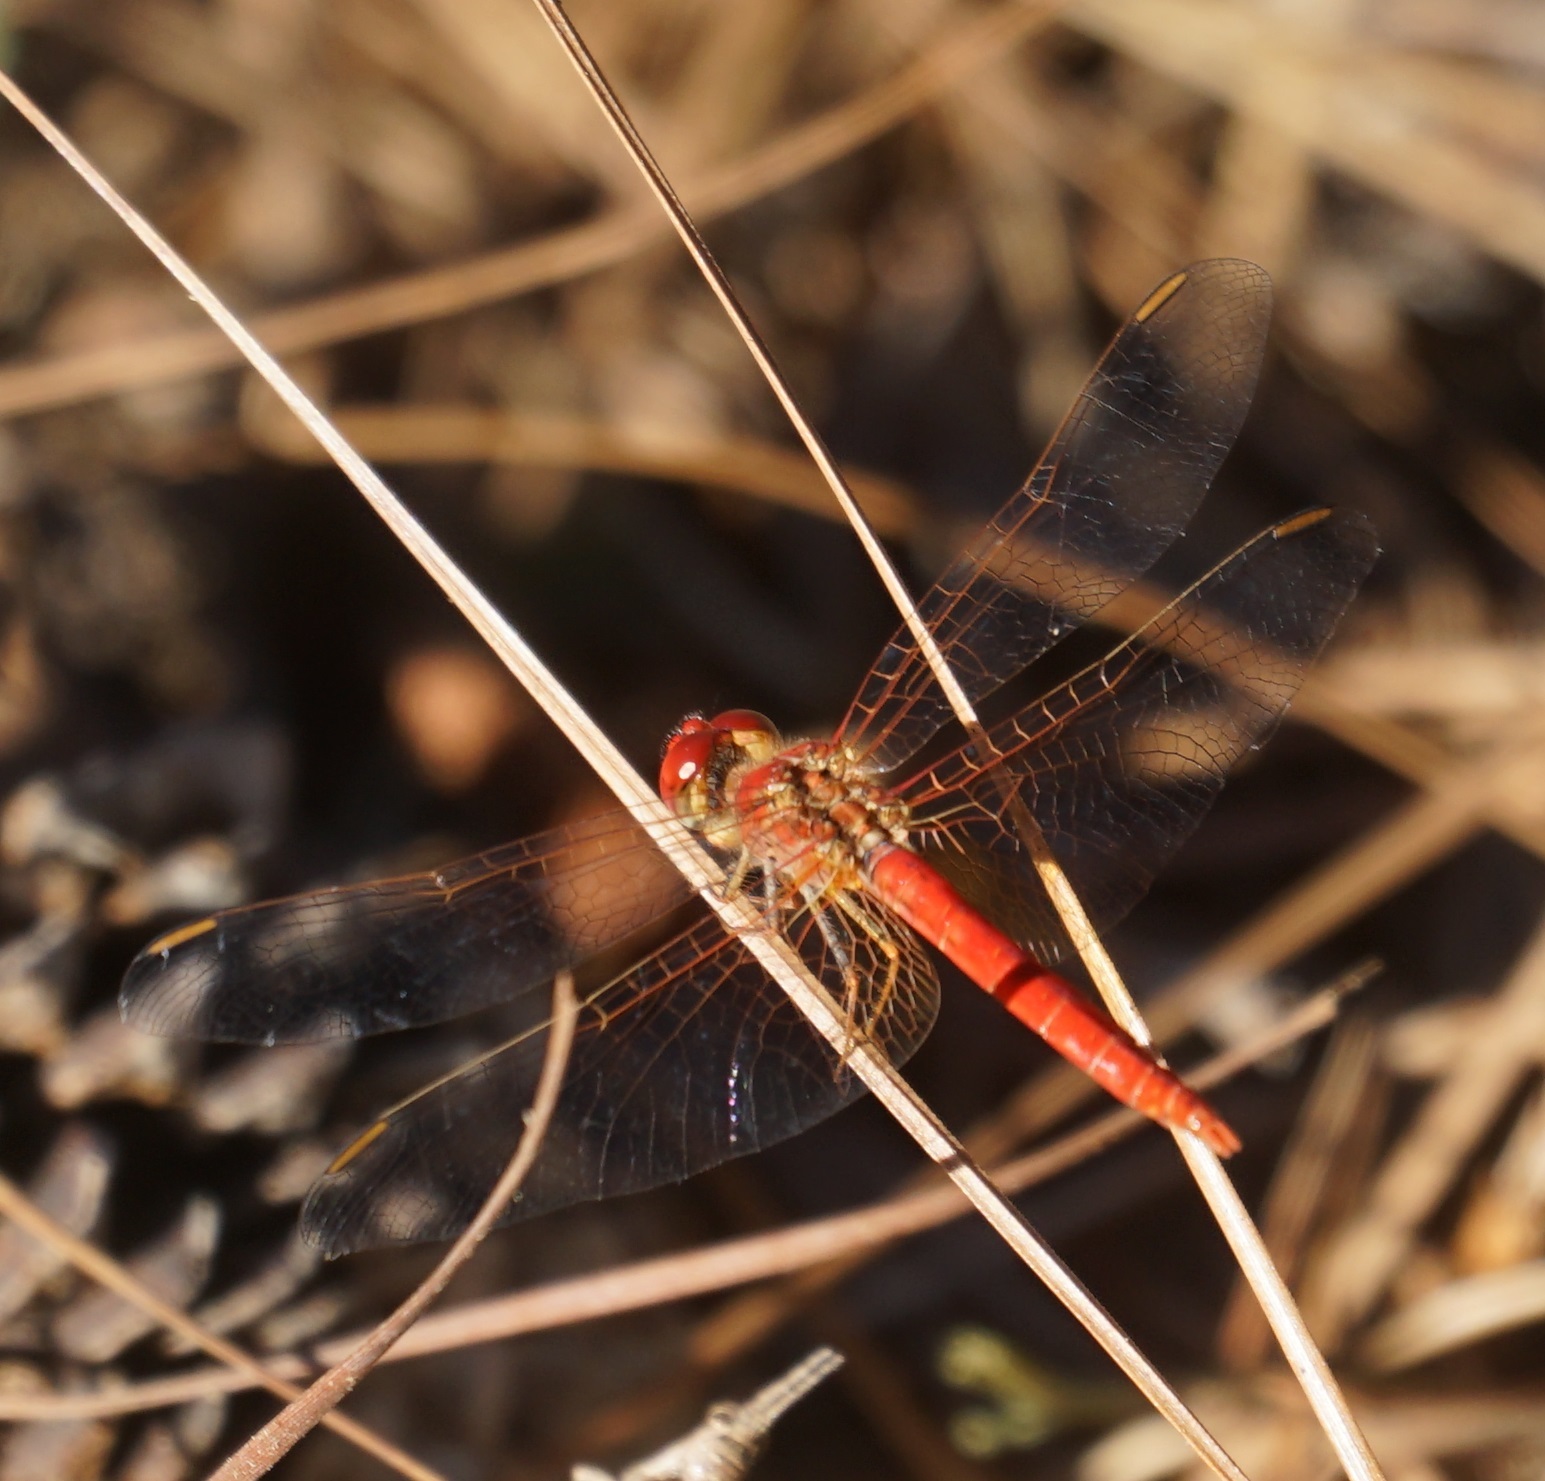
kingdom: Animalia
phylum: Arthropoda
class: Insecta
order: Odonata
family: Libellulidae
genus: Diplacodes
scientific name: Diplacodes haematodes
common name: Scarlet percher
